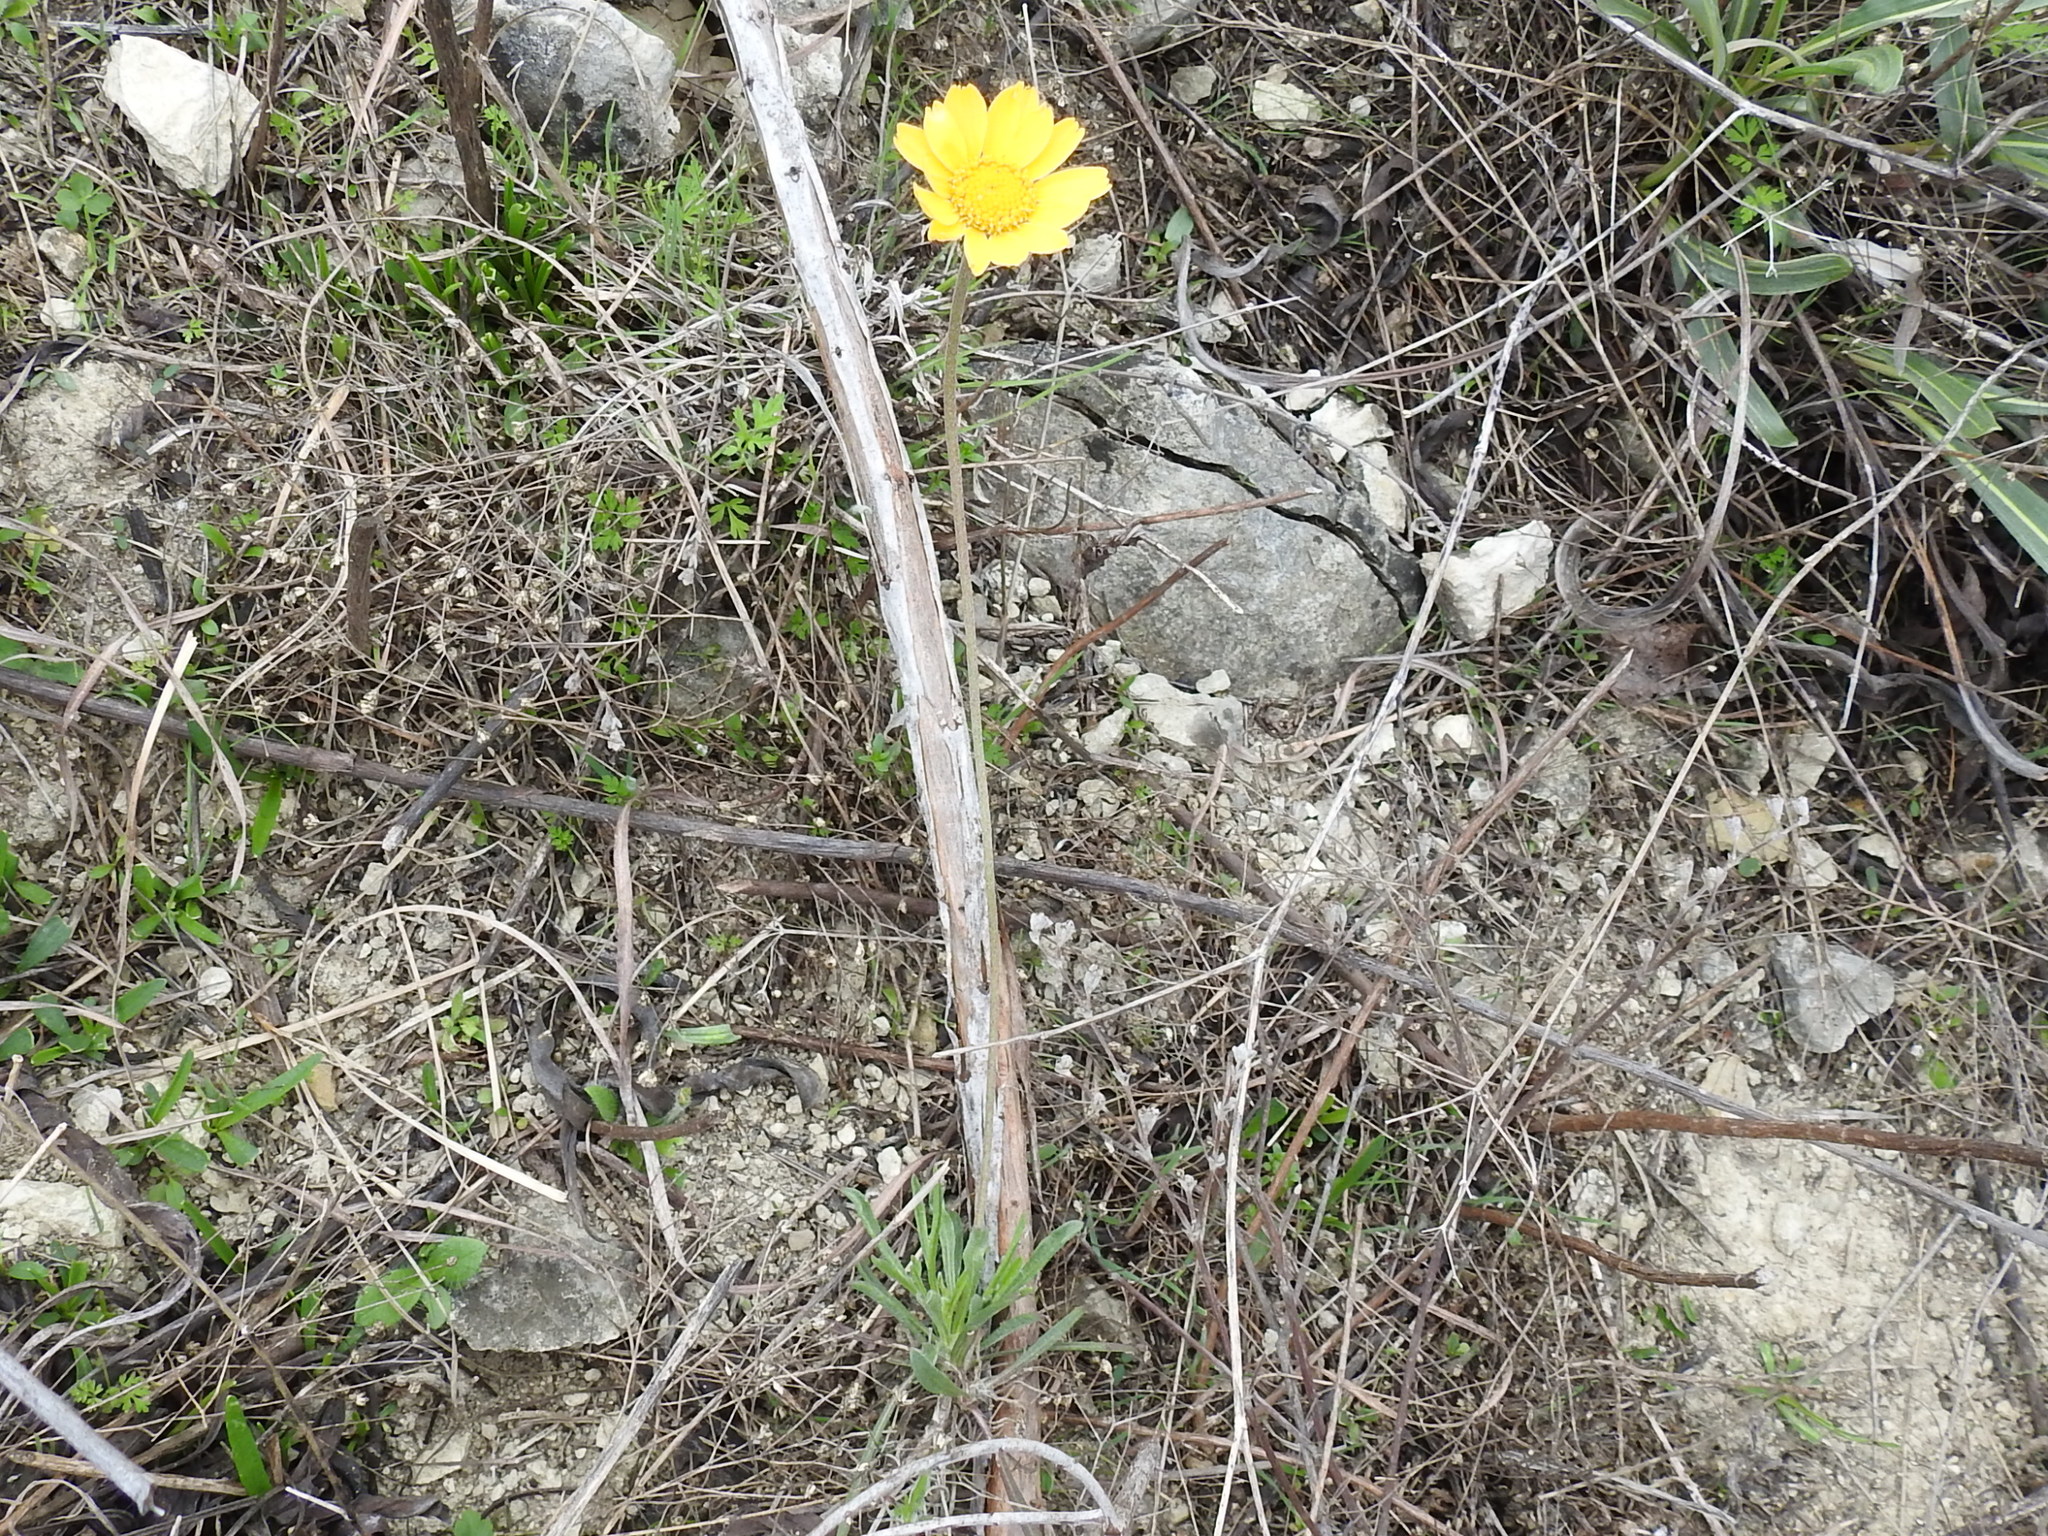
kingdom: Plantae
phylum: Tracheophyta
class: Magnoliopsida
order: Asterales
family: Asteraceae
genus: Tetraneuris
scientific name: Tetraneuris scaposa
